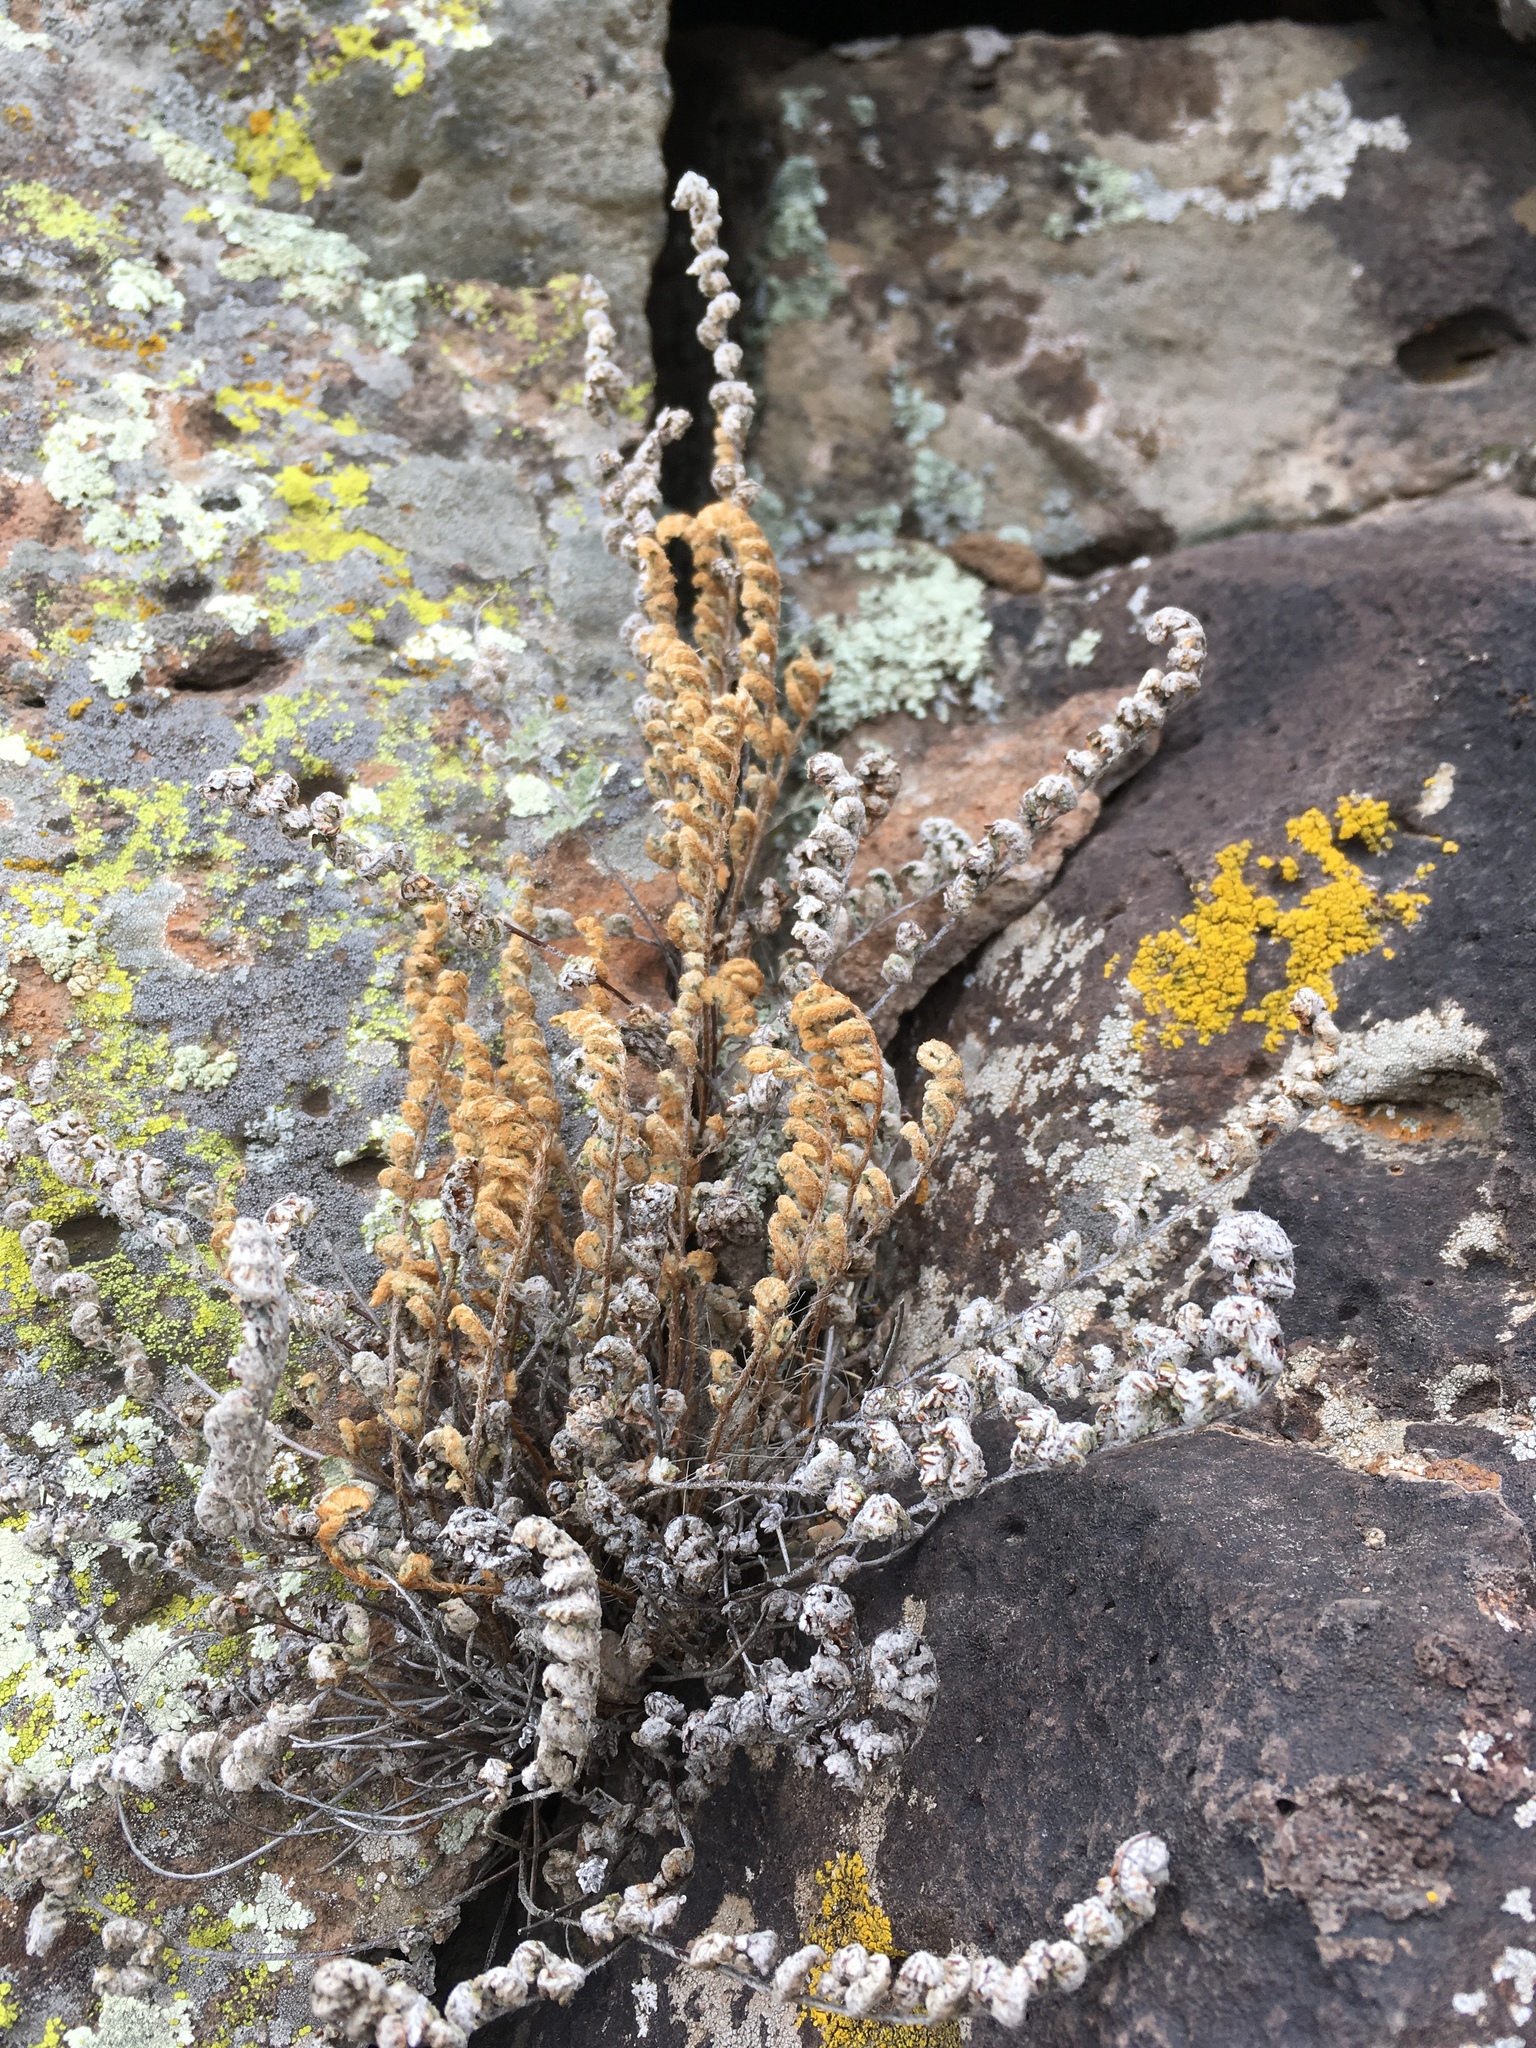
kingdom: Plantae
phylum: Tracheophyta
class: Polypodiopsida
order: Polypodiales
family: Pteridaceae
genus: Myriopteris
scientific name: Myriopteris rufa
